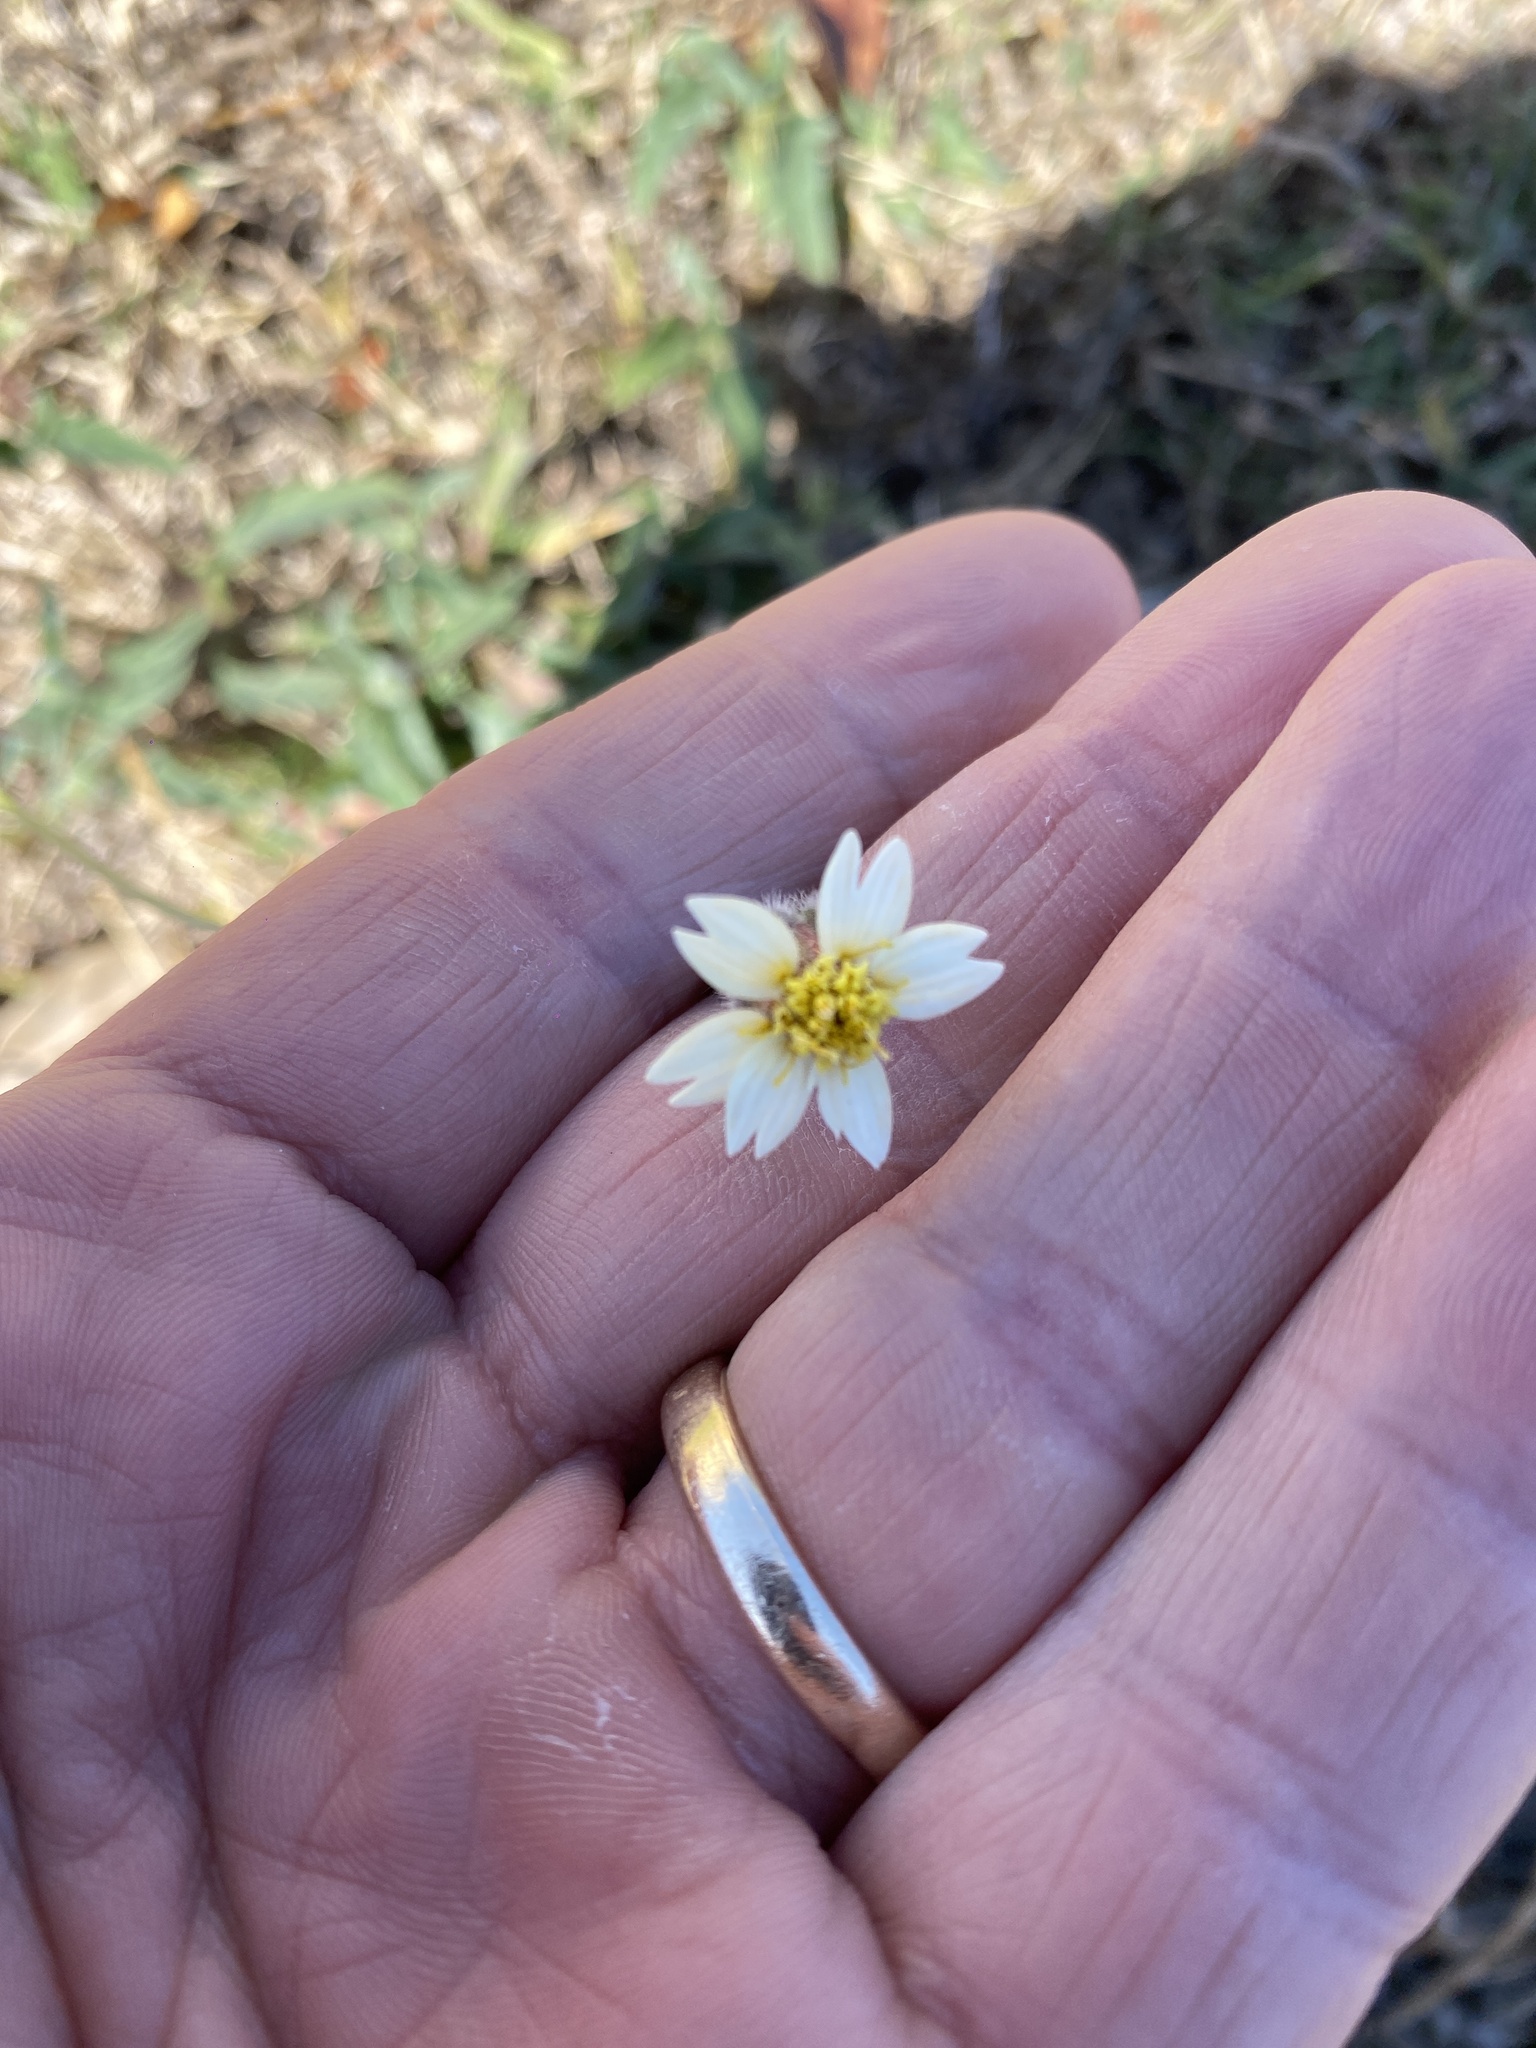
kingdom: Plantae
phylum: Tracheophyta
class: Magnoliopsida
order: Asterales
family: Asteraceae
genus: Tridax
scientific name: Tridax procumbens
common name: Coatbuttons
